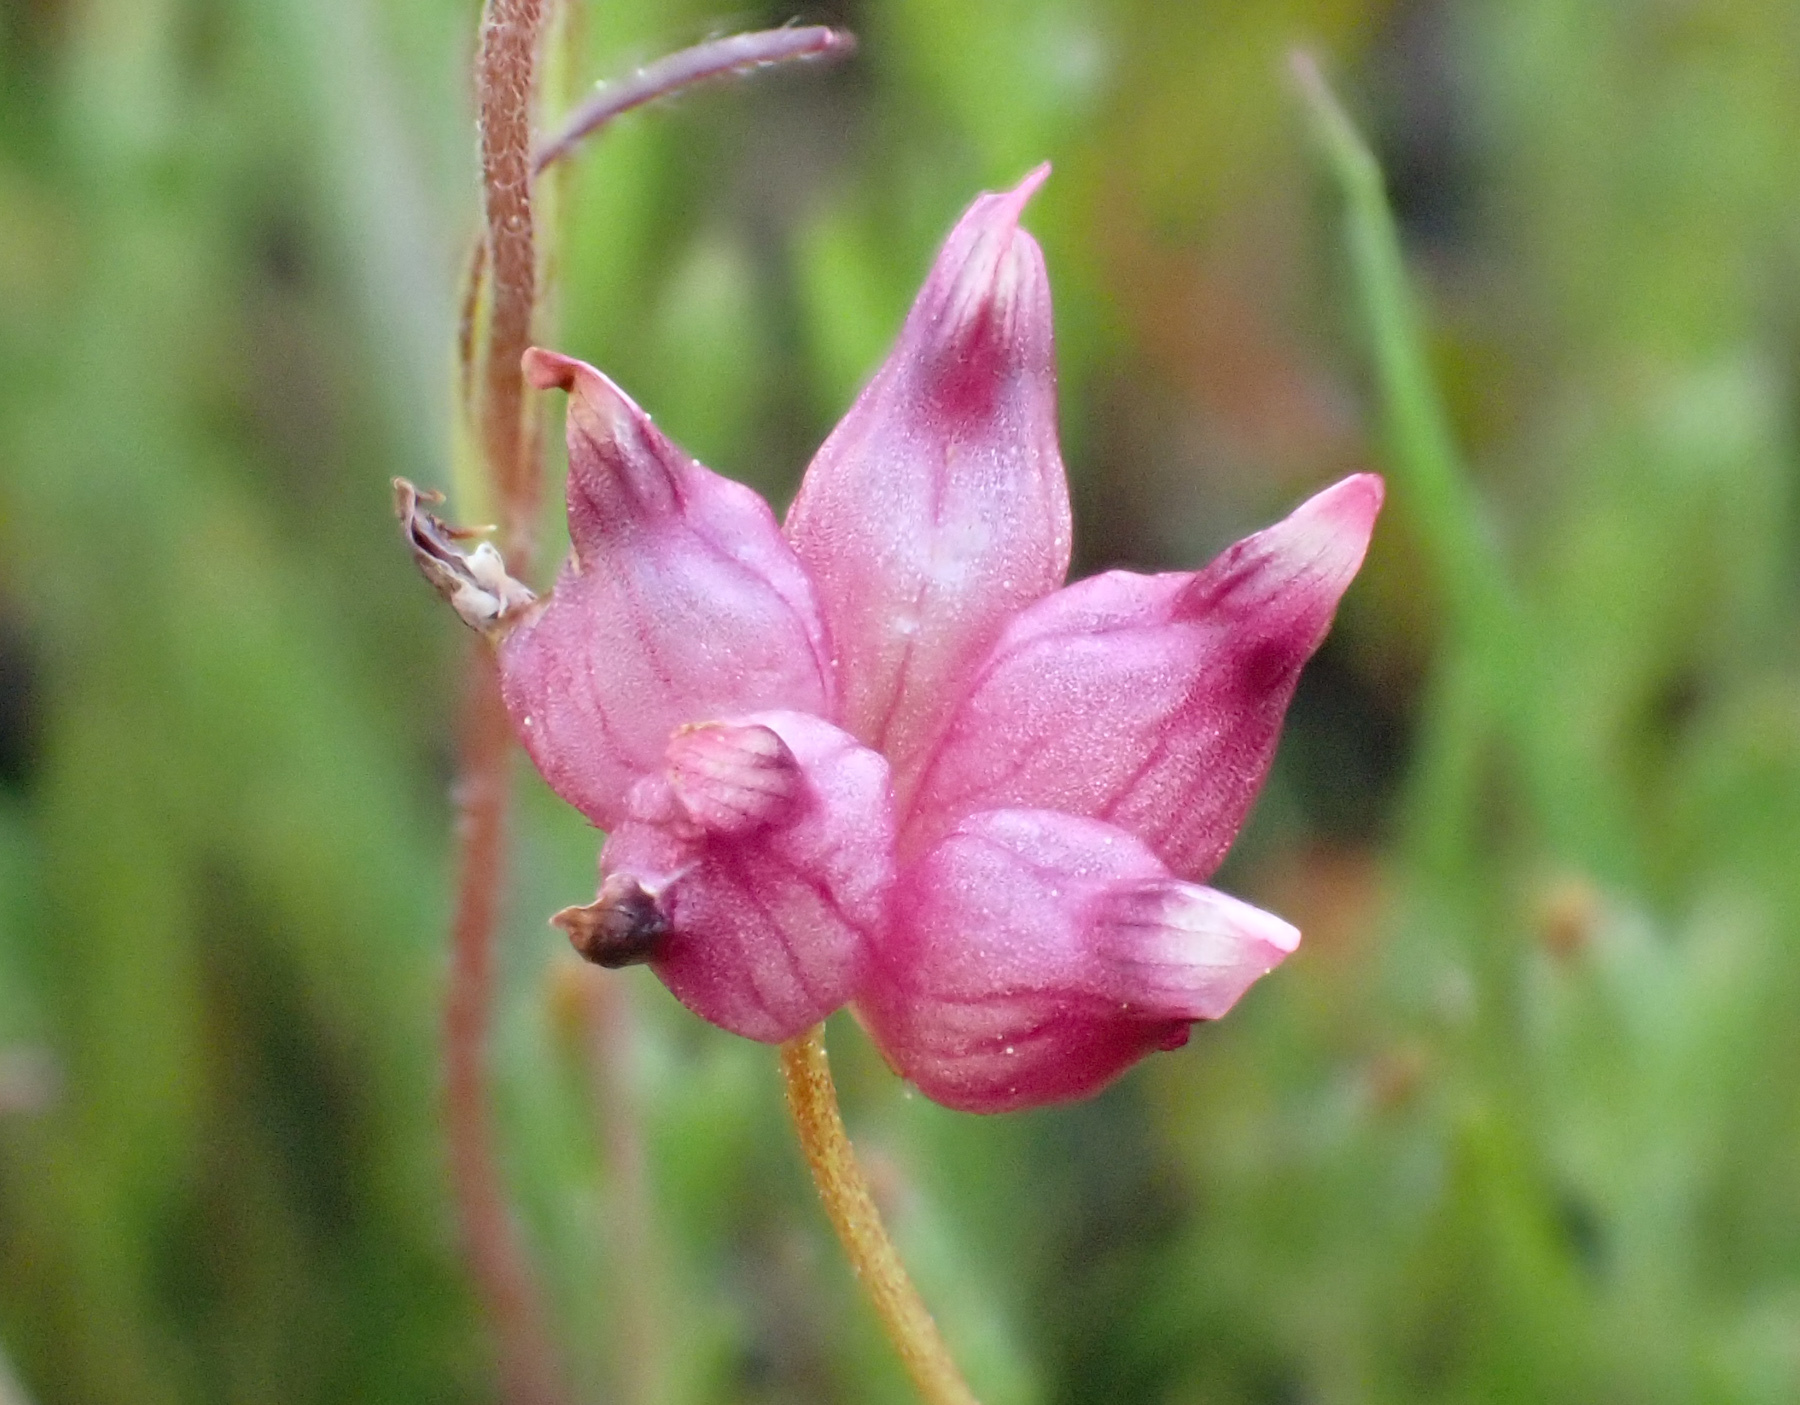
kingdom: Plantae
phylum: Tracheophyta
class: Magnoliopsida
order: Fabales
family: Fabaceae
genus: Trifolium
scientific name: Trifolium depauperatum
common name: Poverty clover
